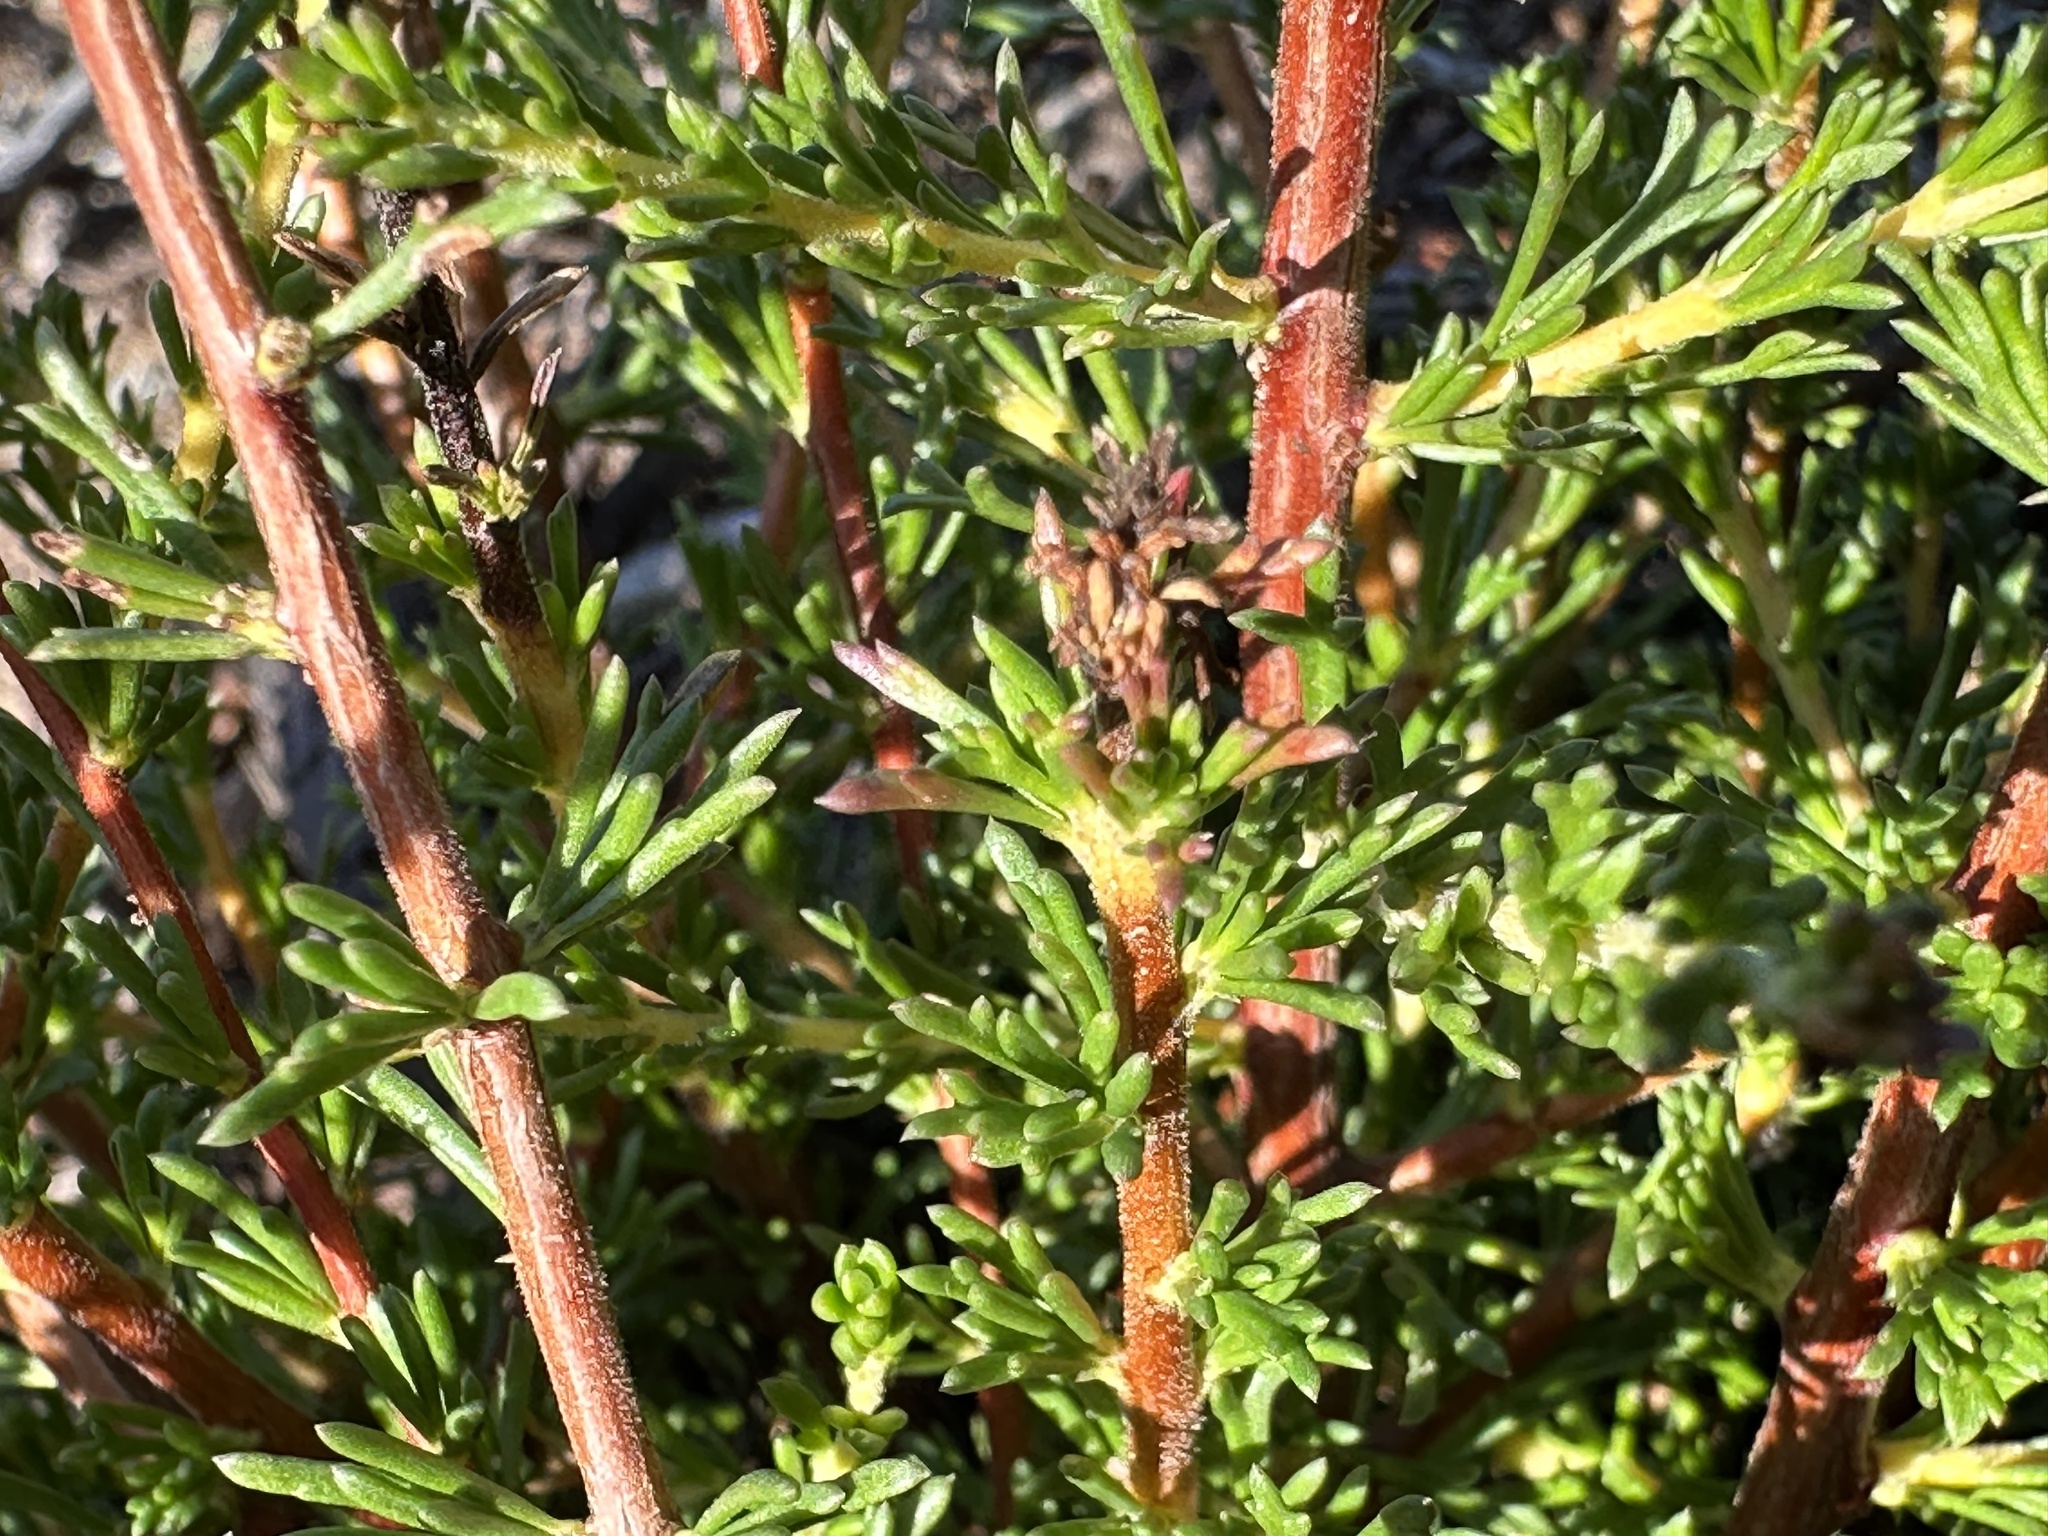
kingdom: Plantae
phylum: Tracheophyta
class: Magnoliopsida
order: Rosales
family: Rosaceae
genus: Adenostoma
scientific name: Adenostoma fasciculatum
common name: Chamise
